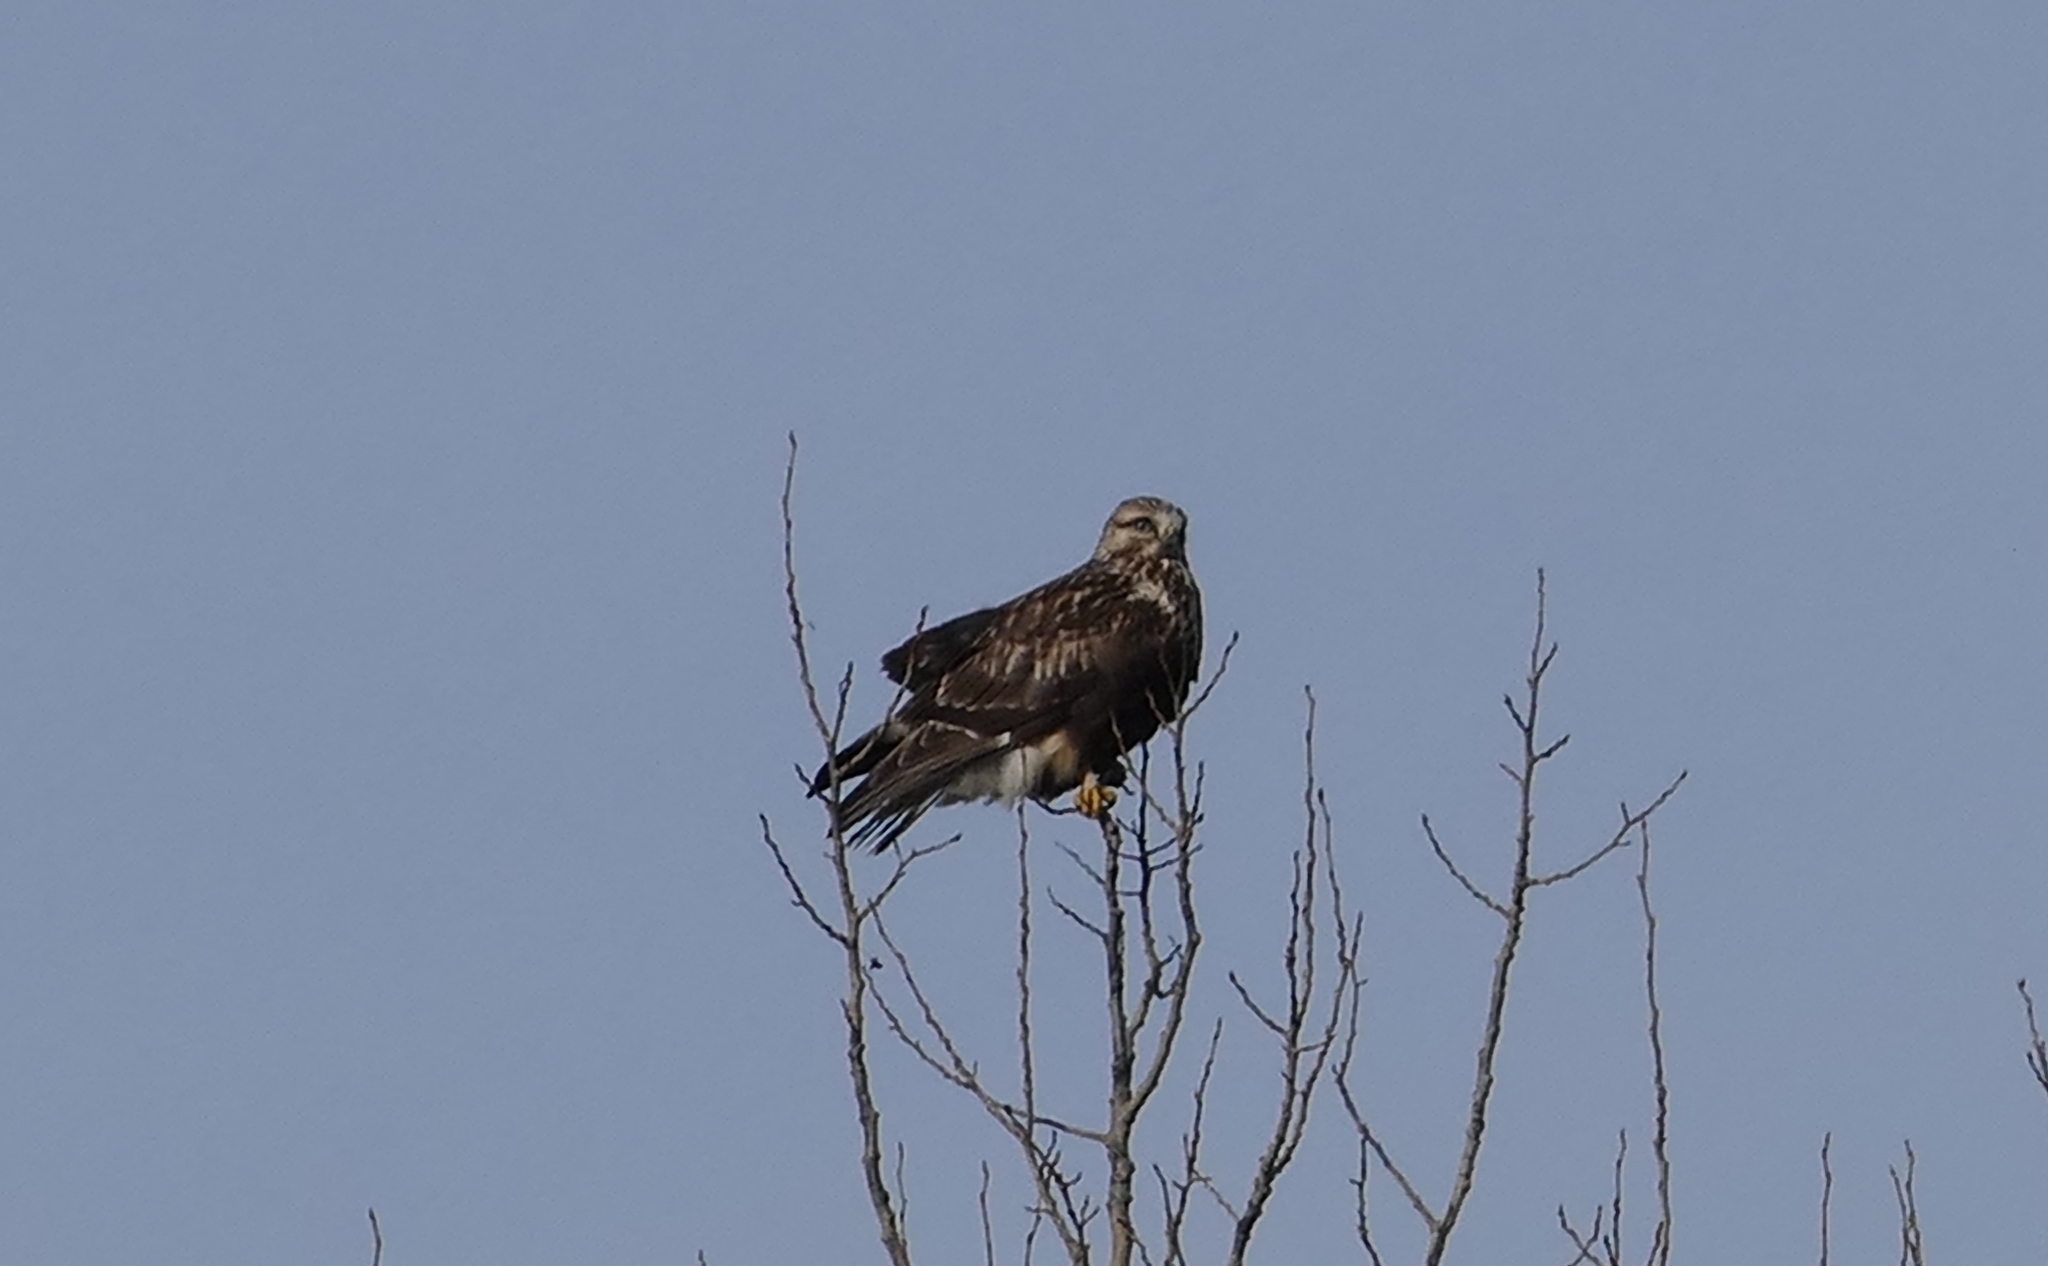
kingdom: Animalia
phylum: Chordata
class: Aves
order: Accipitriformes
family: Accipitridae
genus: Buteo
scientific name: Buteo lagopus
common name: Rough-legged buzzard
